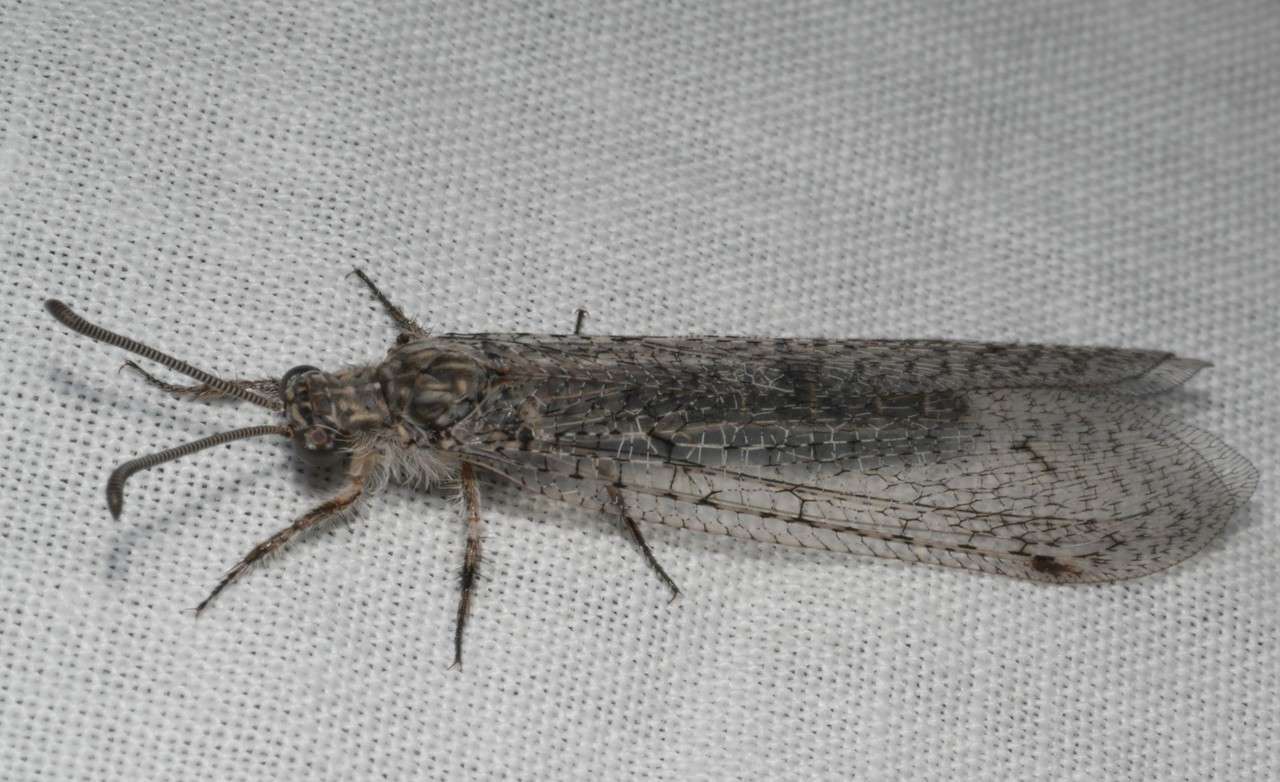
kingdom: Animalia
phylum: Arthropoda
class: Insecta
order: Neuroptera
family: Myrmeleontidae
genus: Mossega
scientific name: Mossega indecisa
